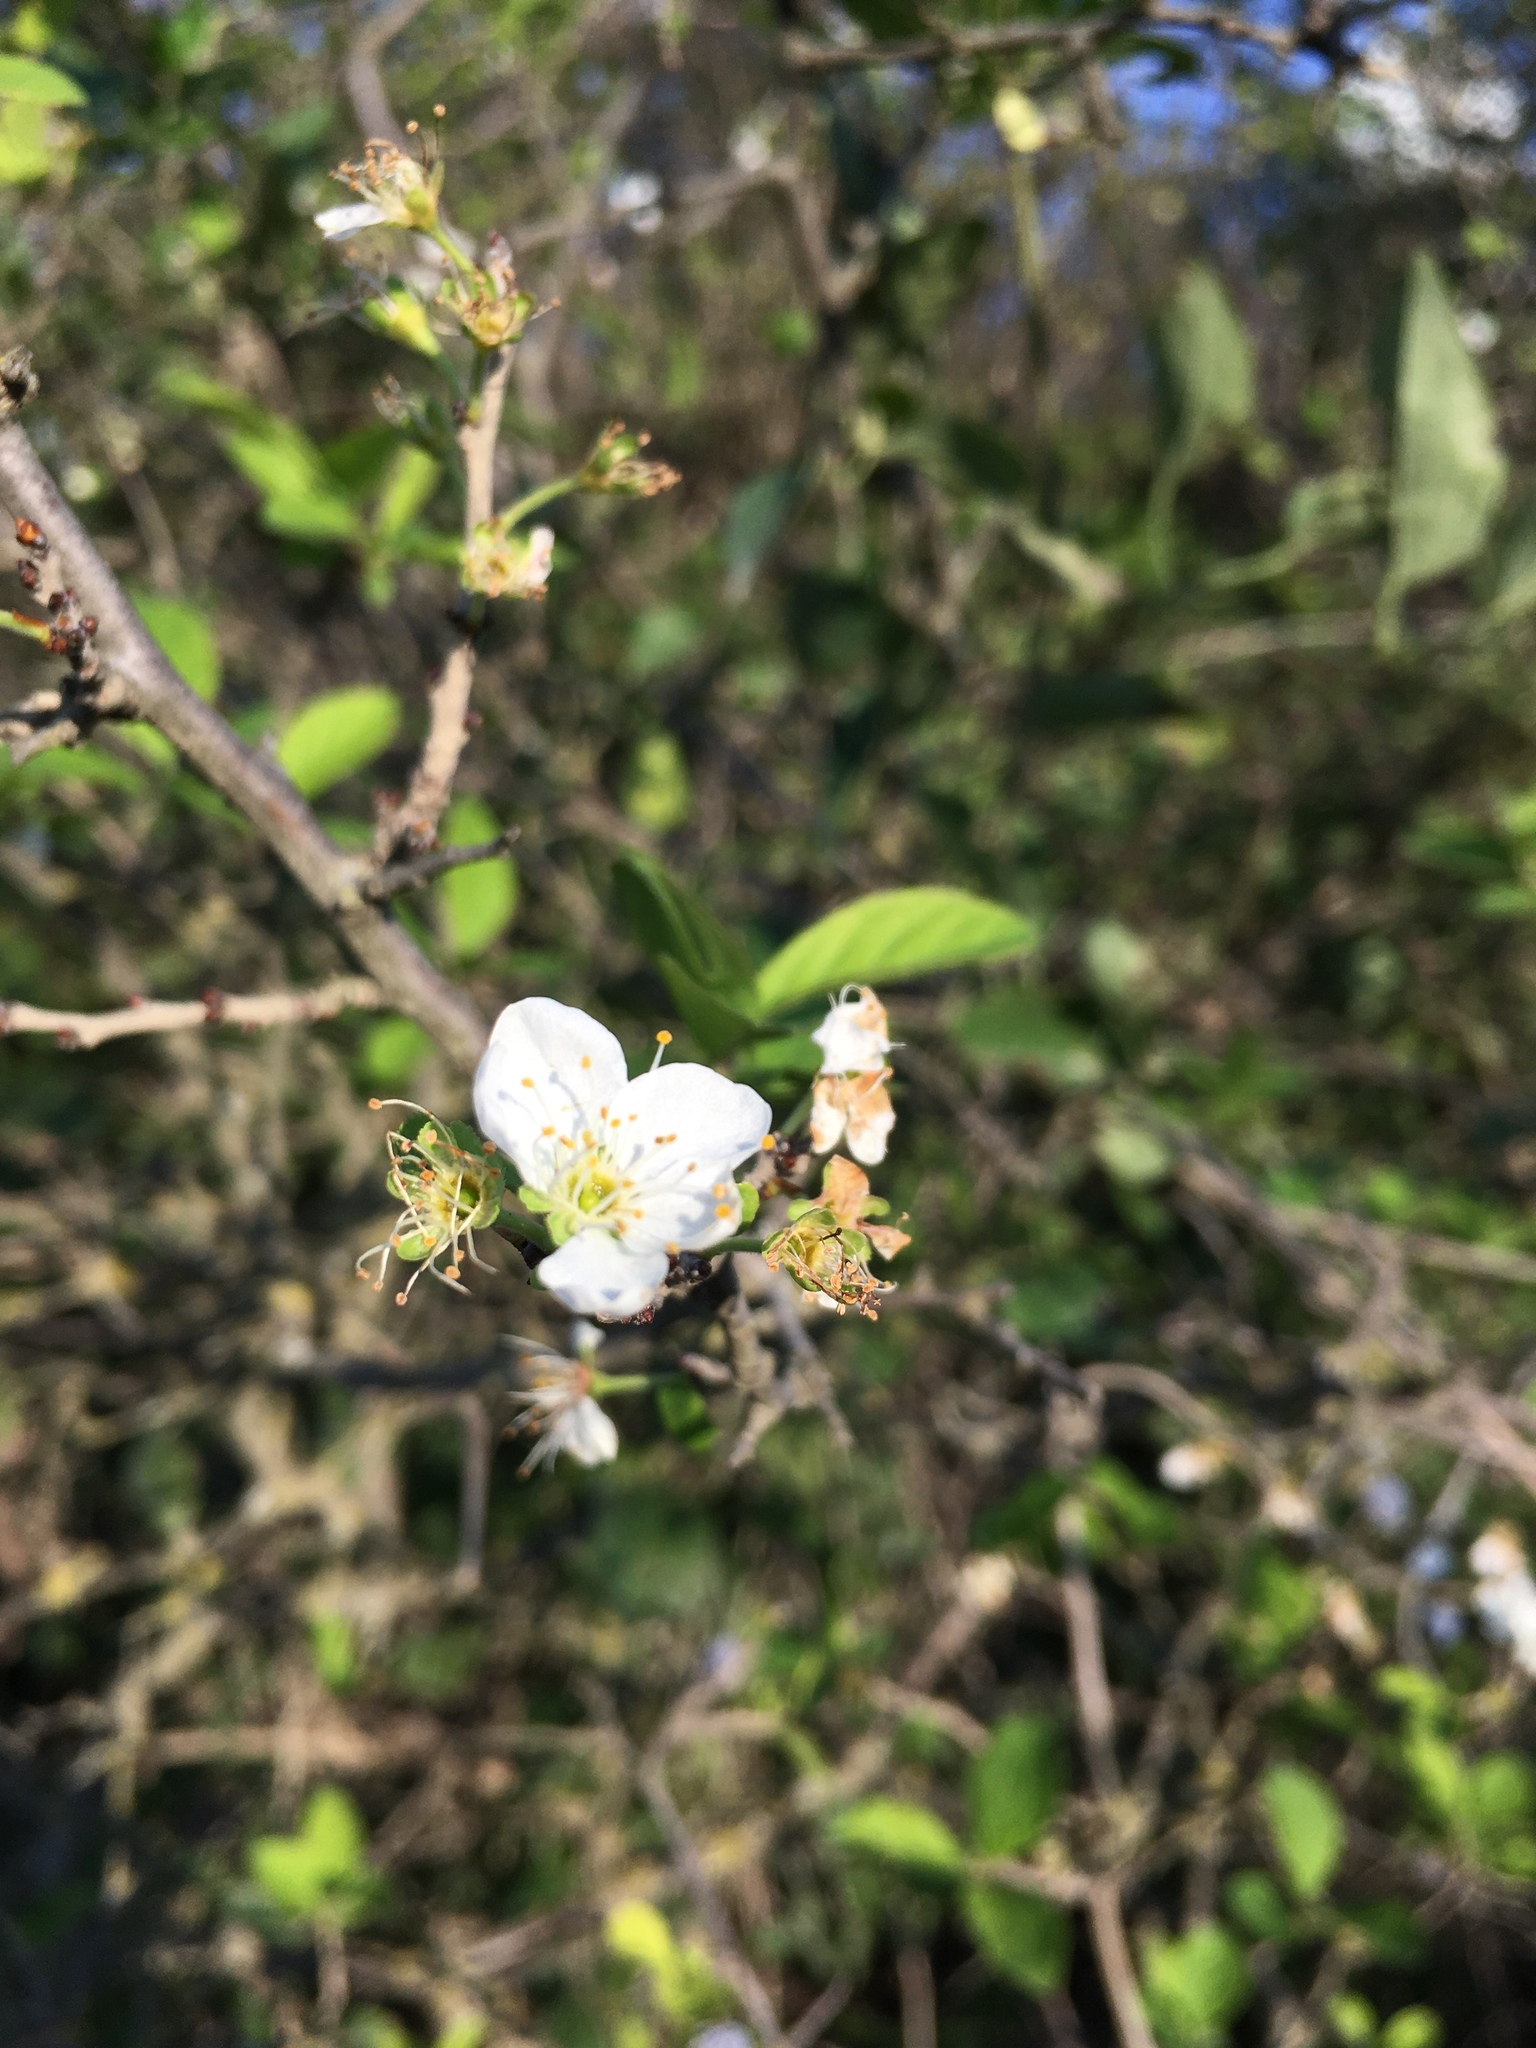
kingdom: Plantae
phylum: Tracheophyta
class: Magnoliopsida
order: Rosales
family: Rosaceae
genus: Prunus
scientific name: Prunus spinosa
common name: Blackthorn
